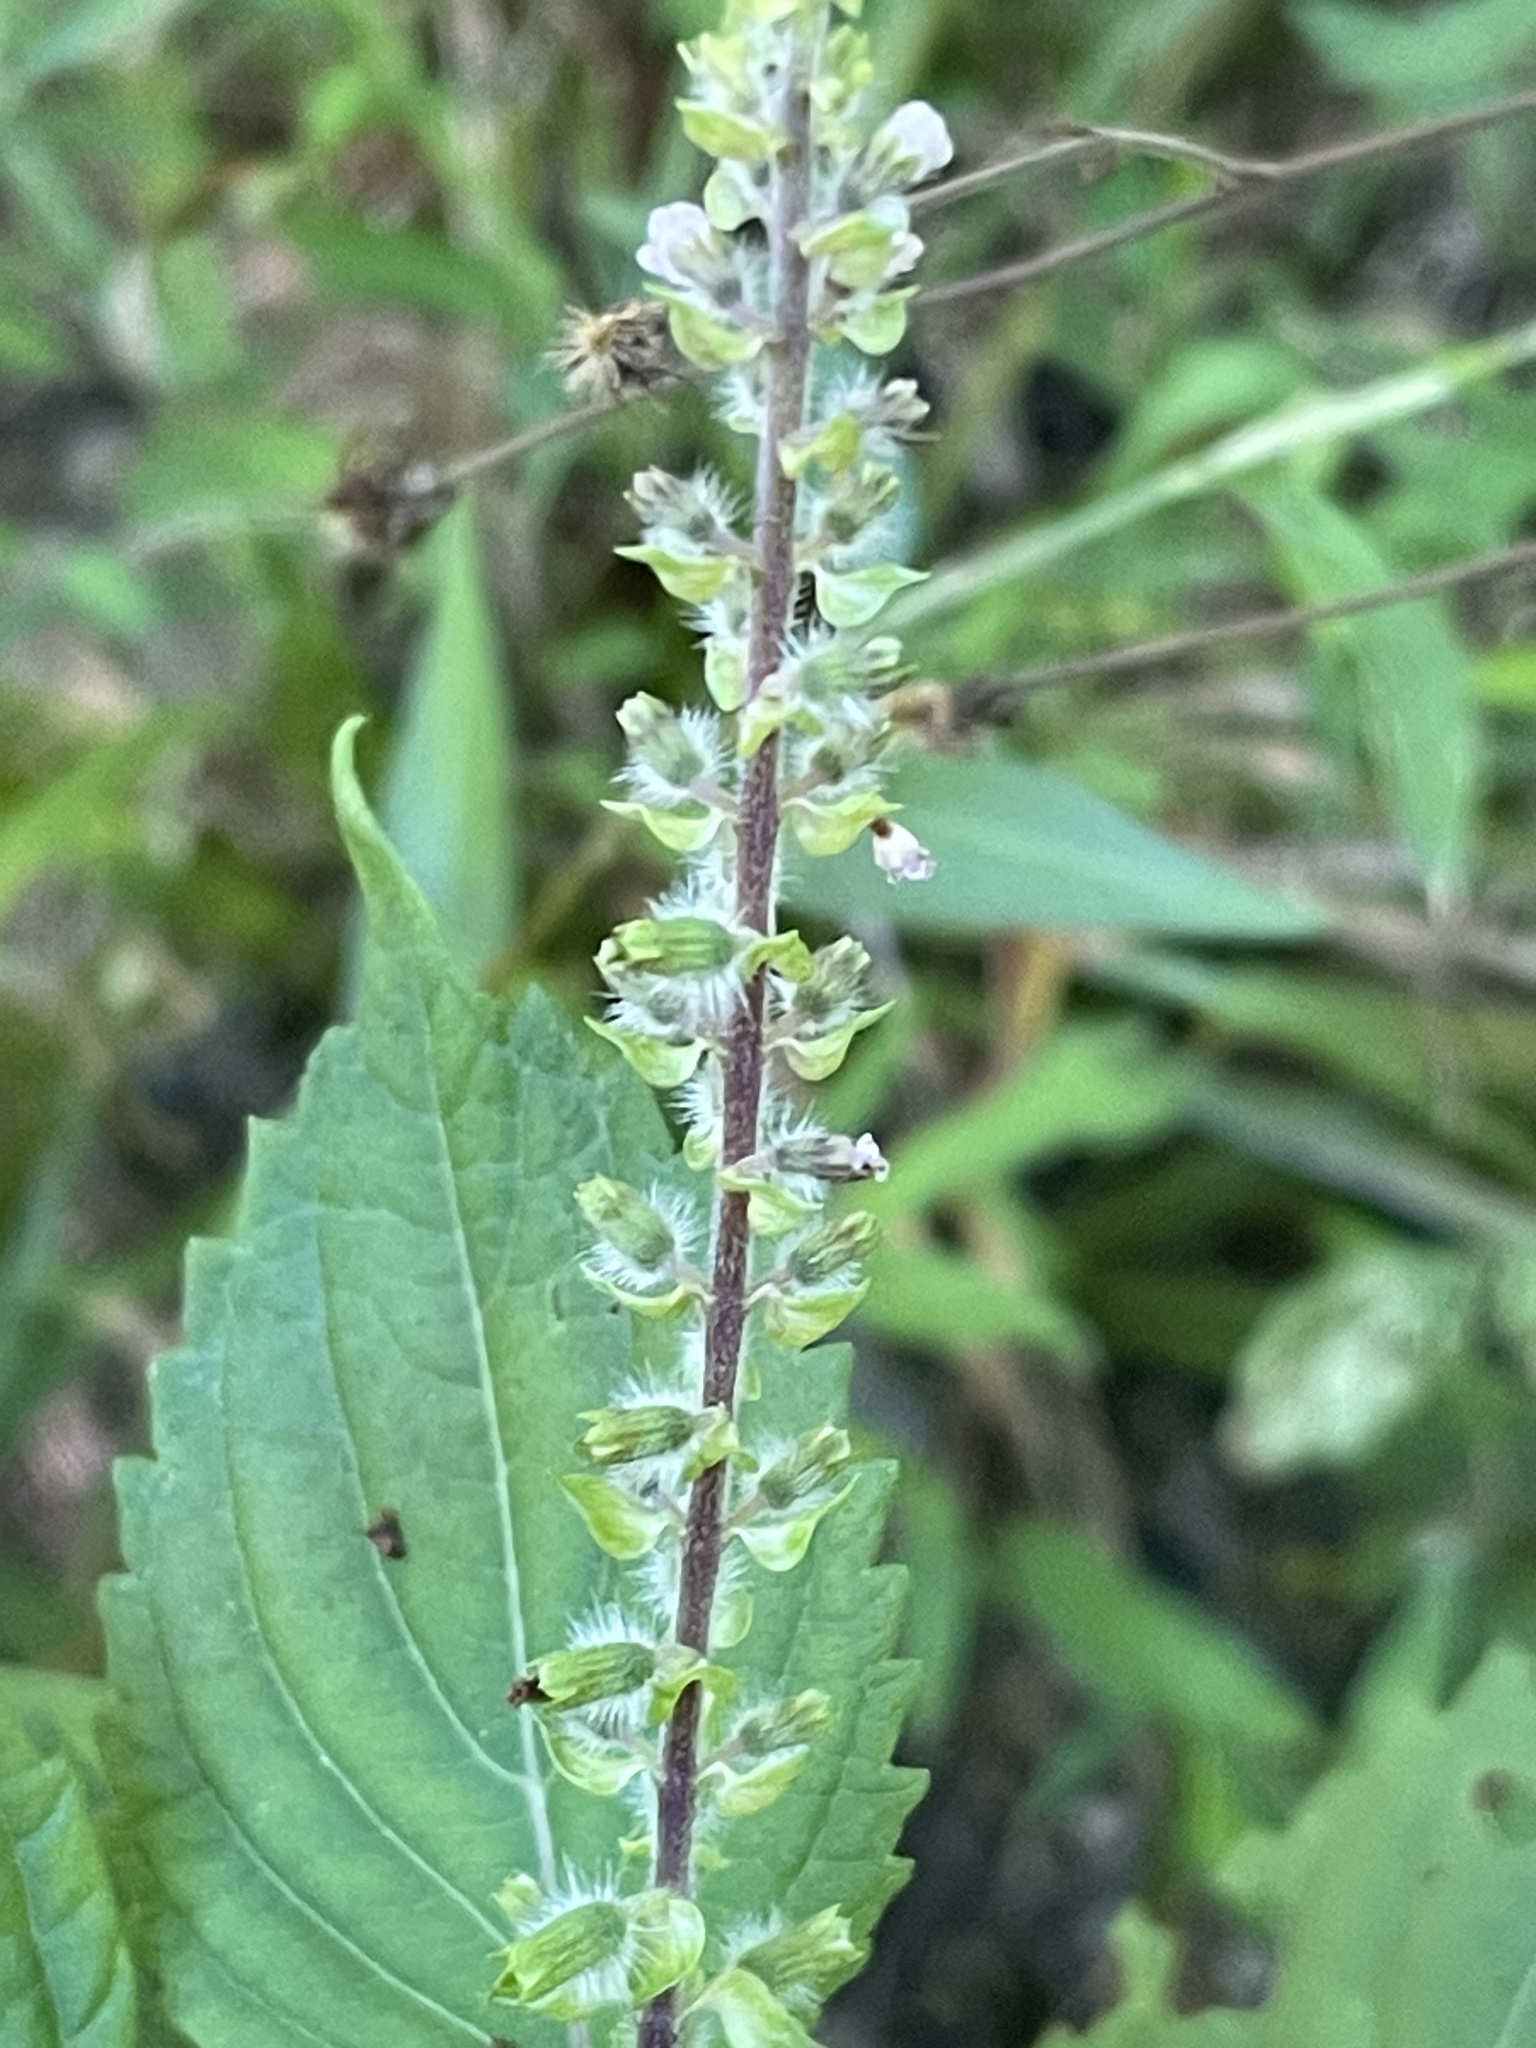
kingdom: Plantae
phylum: Tracheophyta
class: Magnoliopsida
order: Lamiales
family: Lamiaceae
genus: Perilla
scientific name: Perilla frutescens
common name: Perilla
